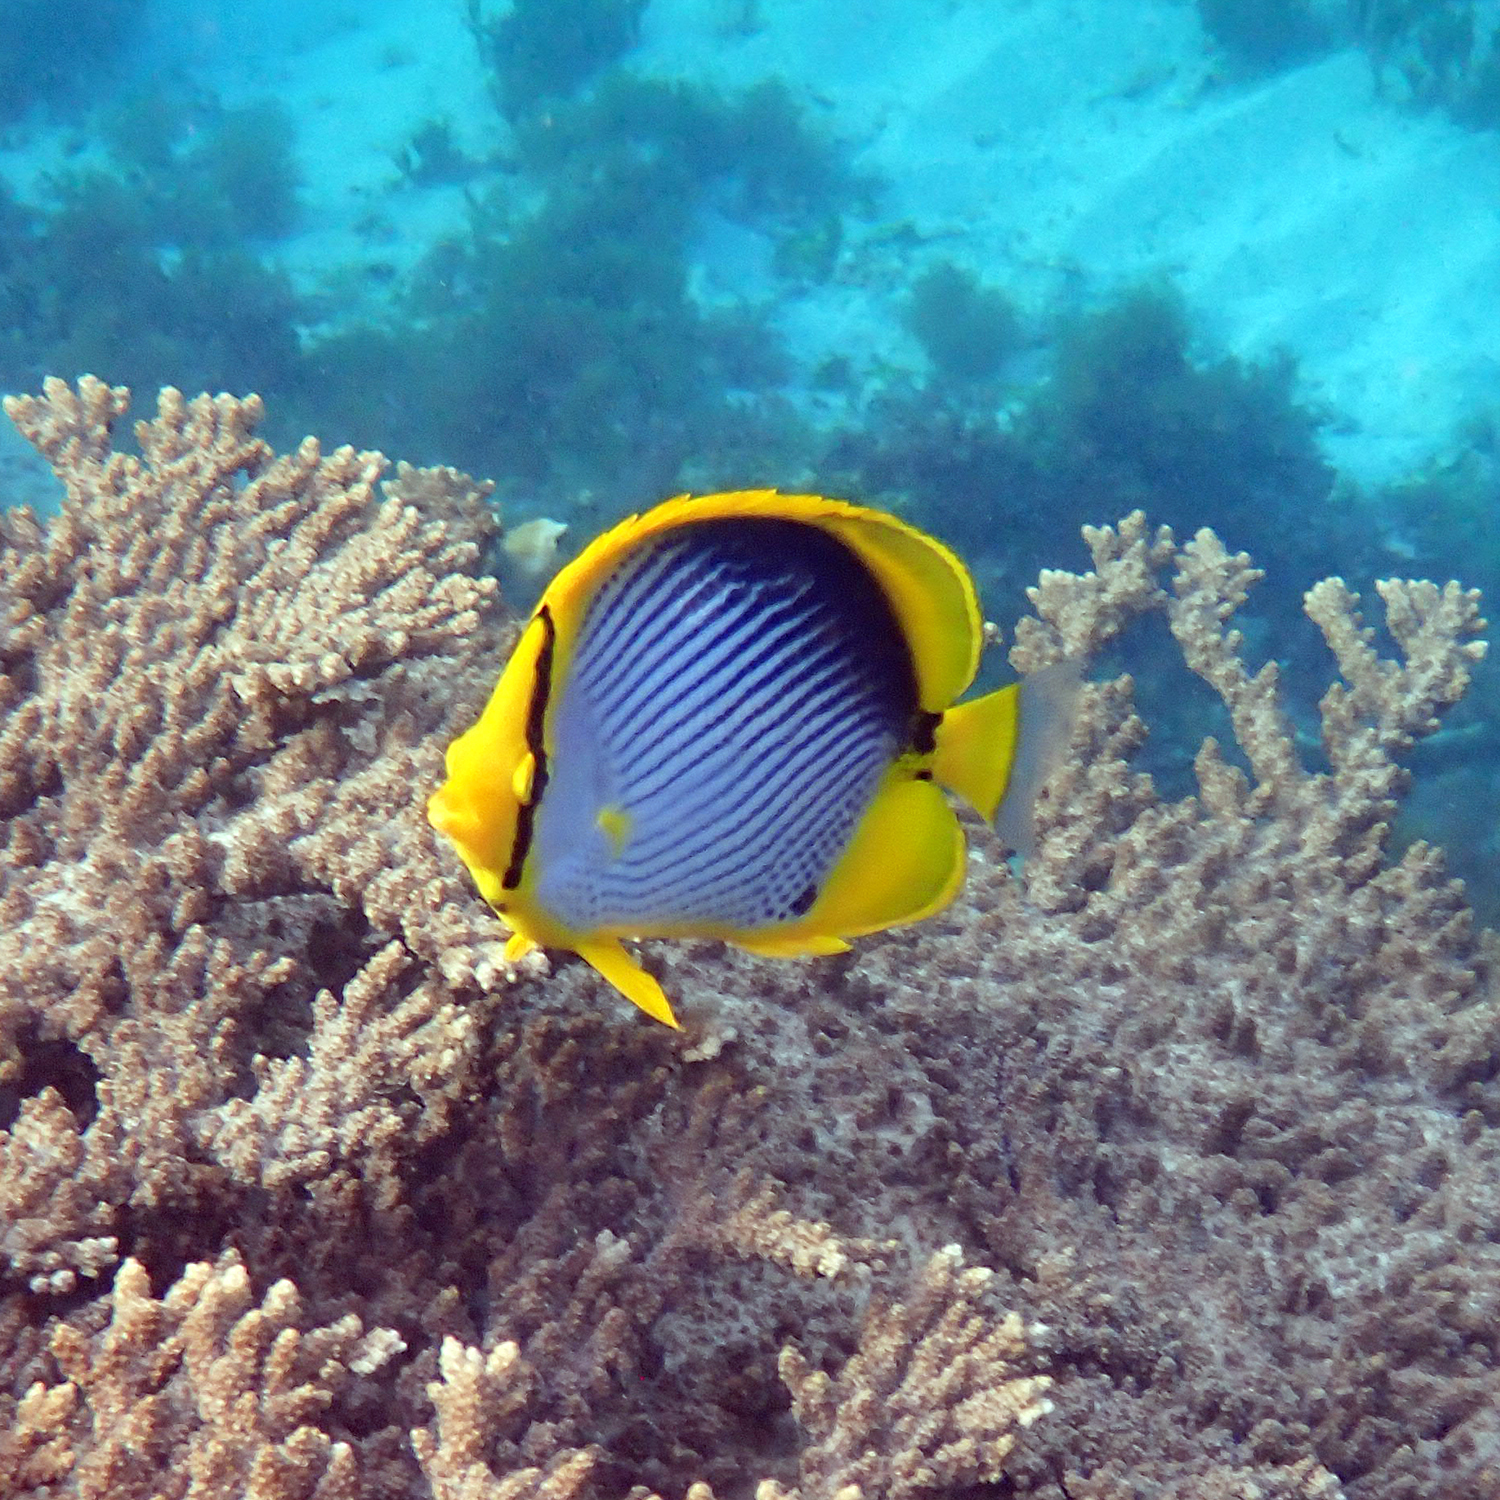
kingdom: Animalia
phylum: Chordata
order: Perciformes
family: Chaetodontidae
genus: Chaetodon
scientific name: Chaetodon melannotus
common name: Blackback butterflyfish
